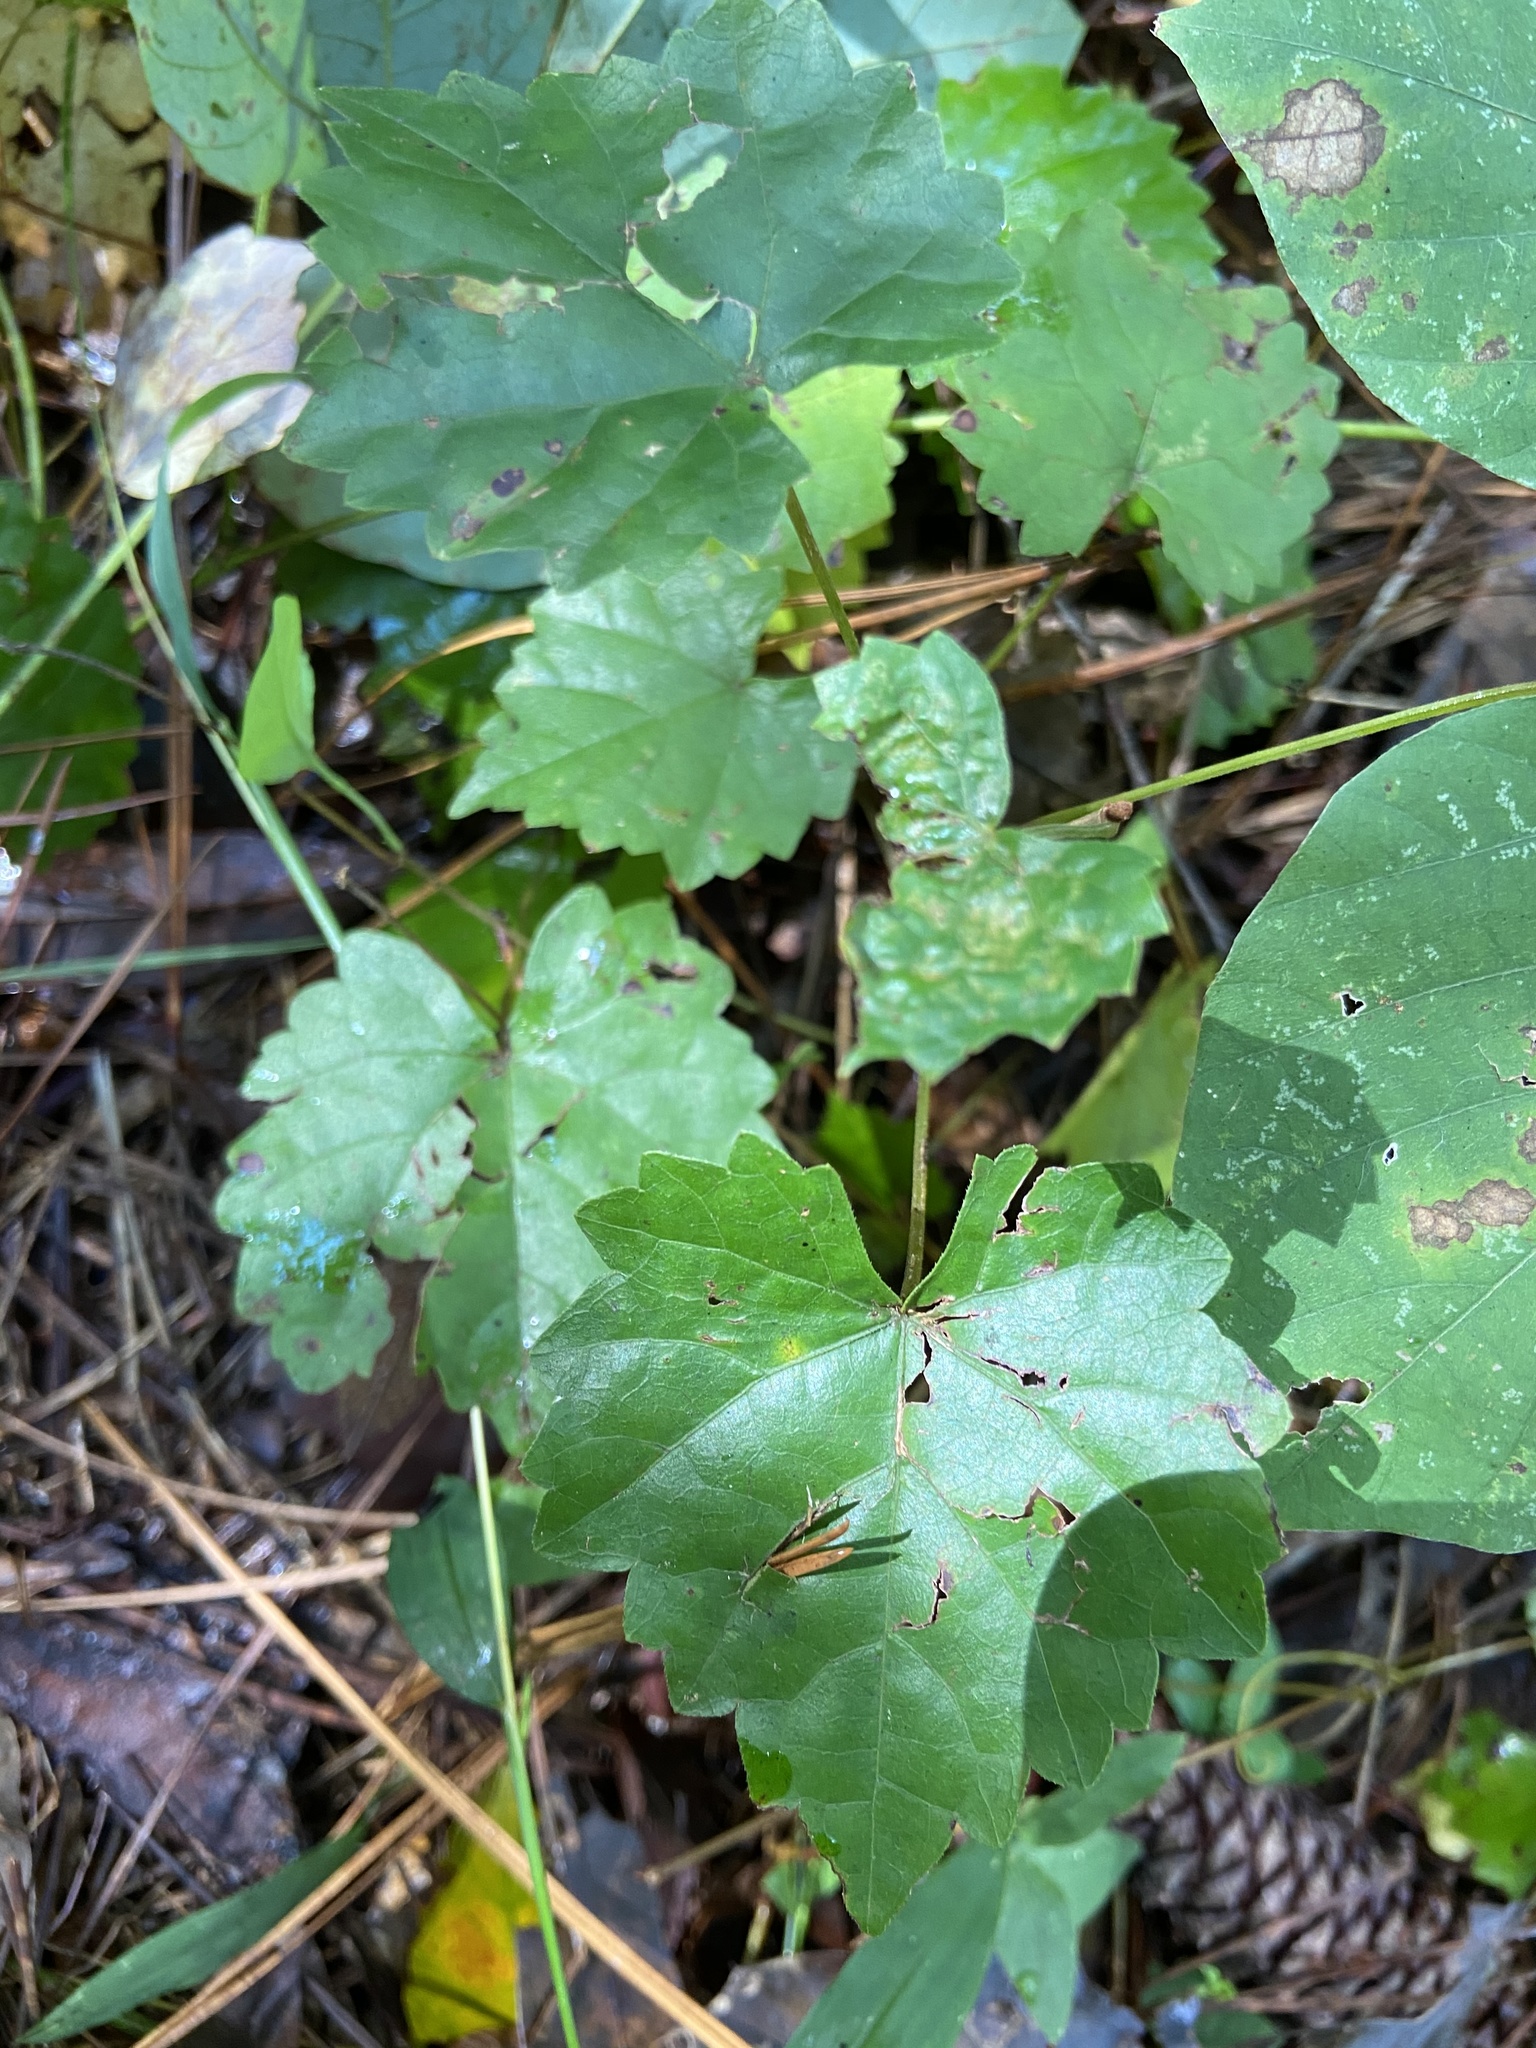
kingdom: Plantae
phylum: Tracheophyta
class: Magnoliopsida
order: Vitales
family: Vitaceae
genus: Vitis
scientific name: Vitis rotundifolia
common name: Muscadine grape
